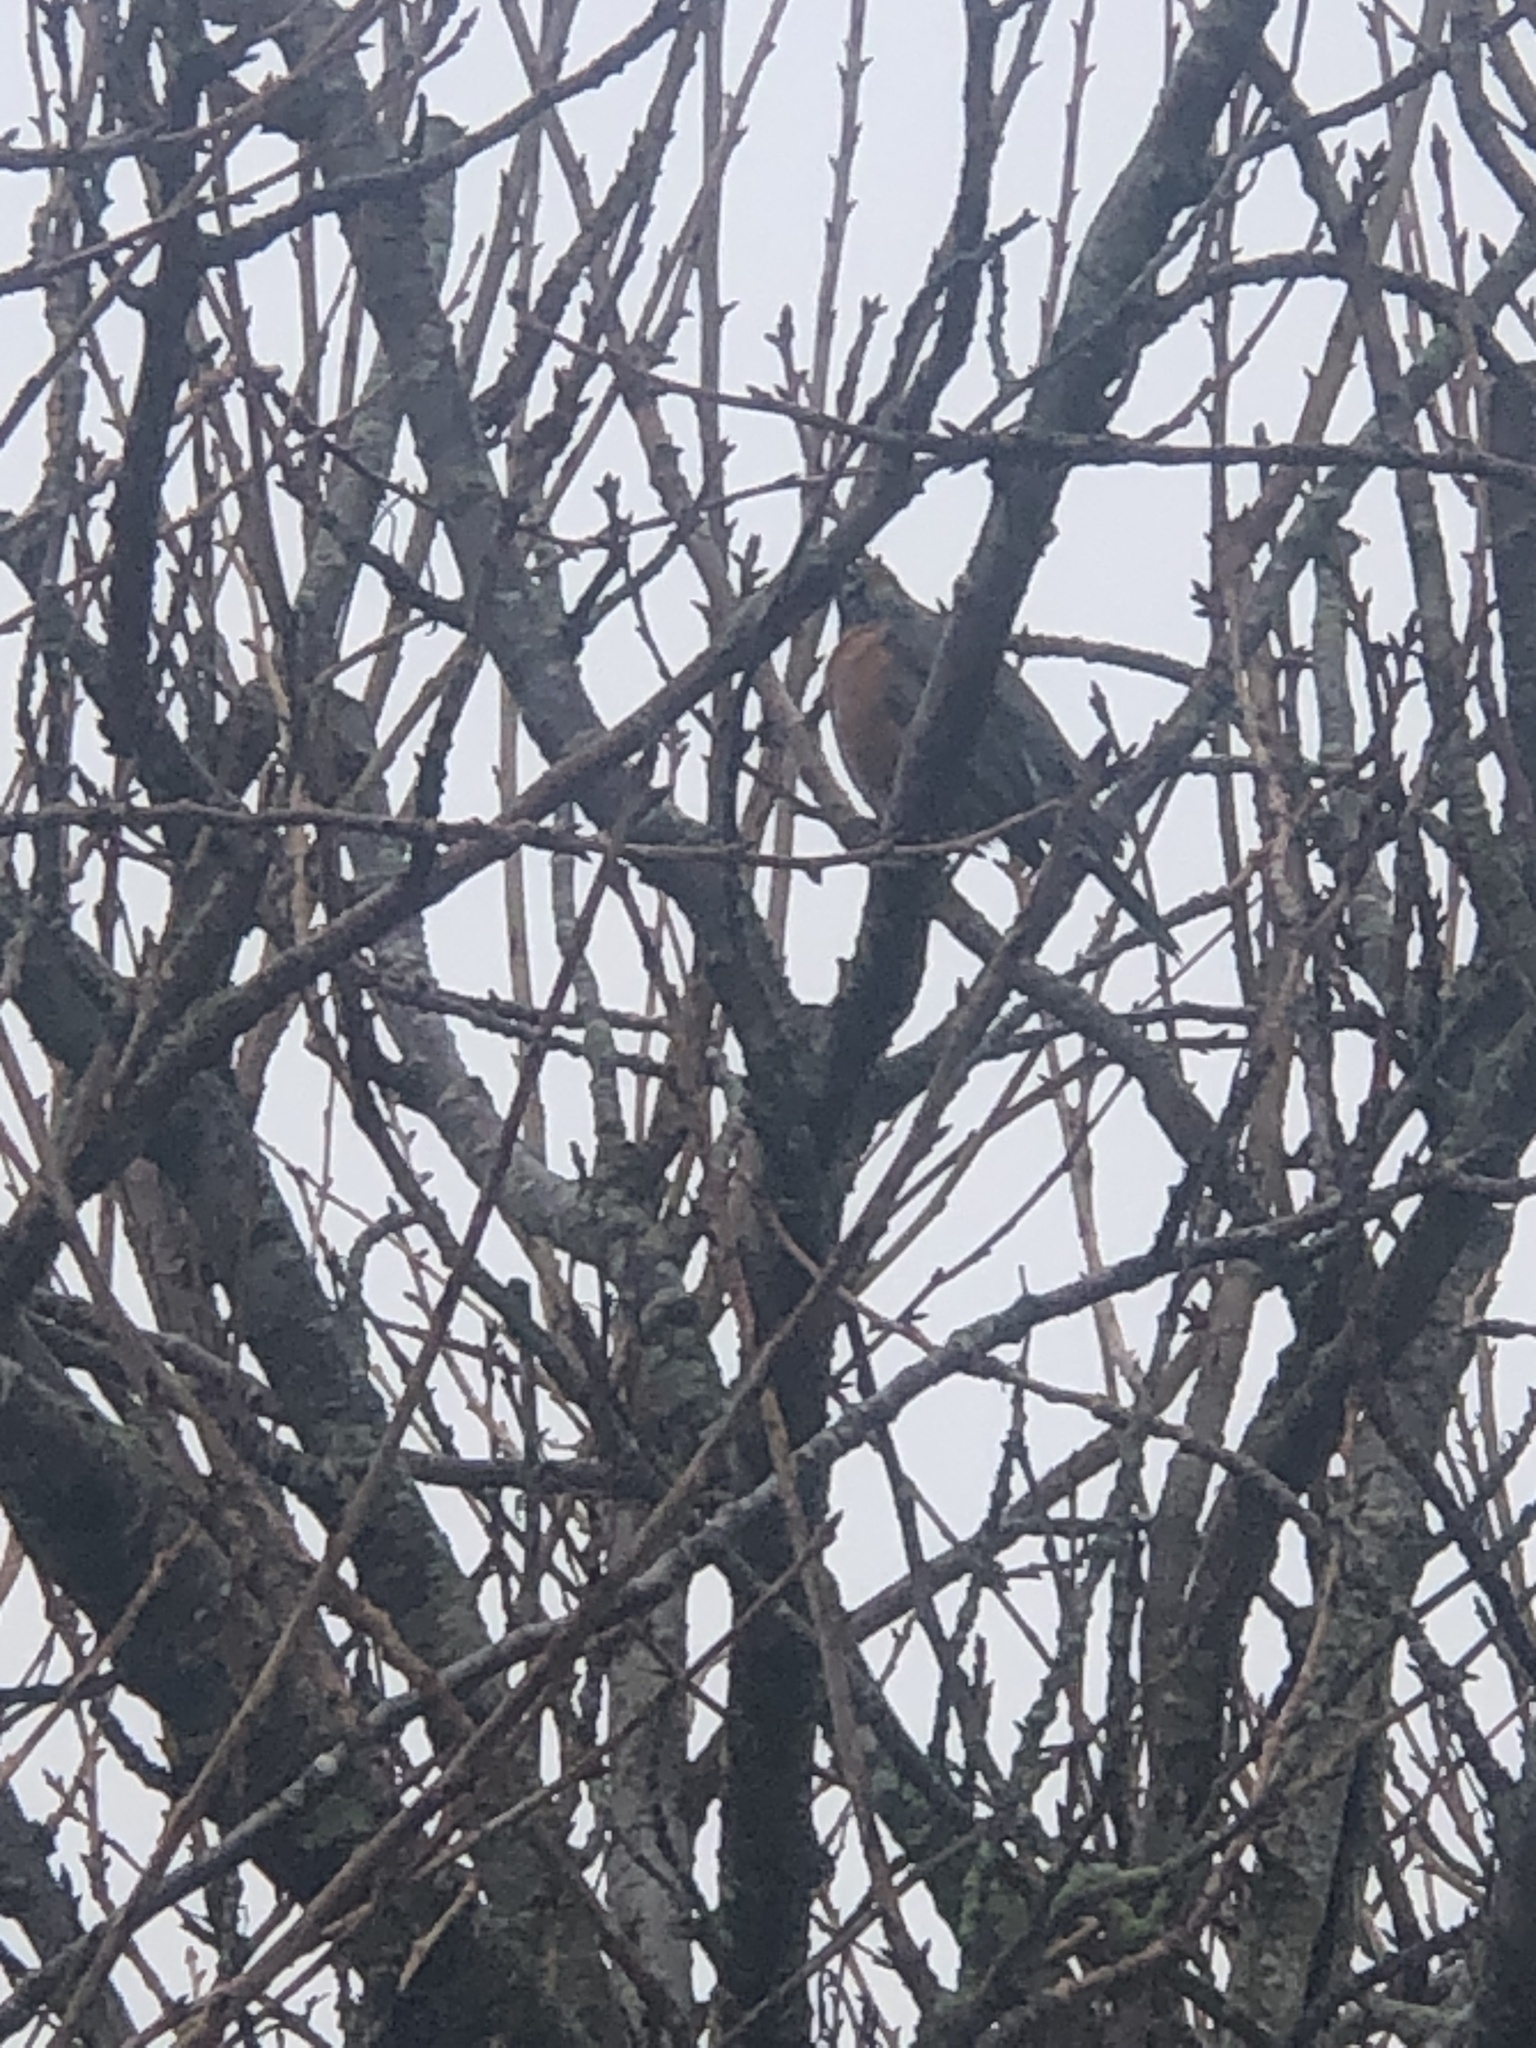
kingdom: Animalia
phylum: Chordata
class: Aves
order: Passeriformes
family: Turdidae
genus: Turdus
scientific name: Turdus migratorius
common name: American robin
